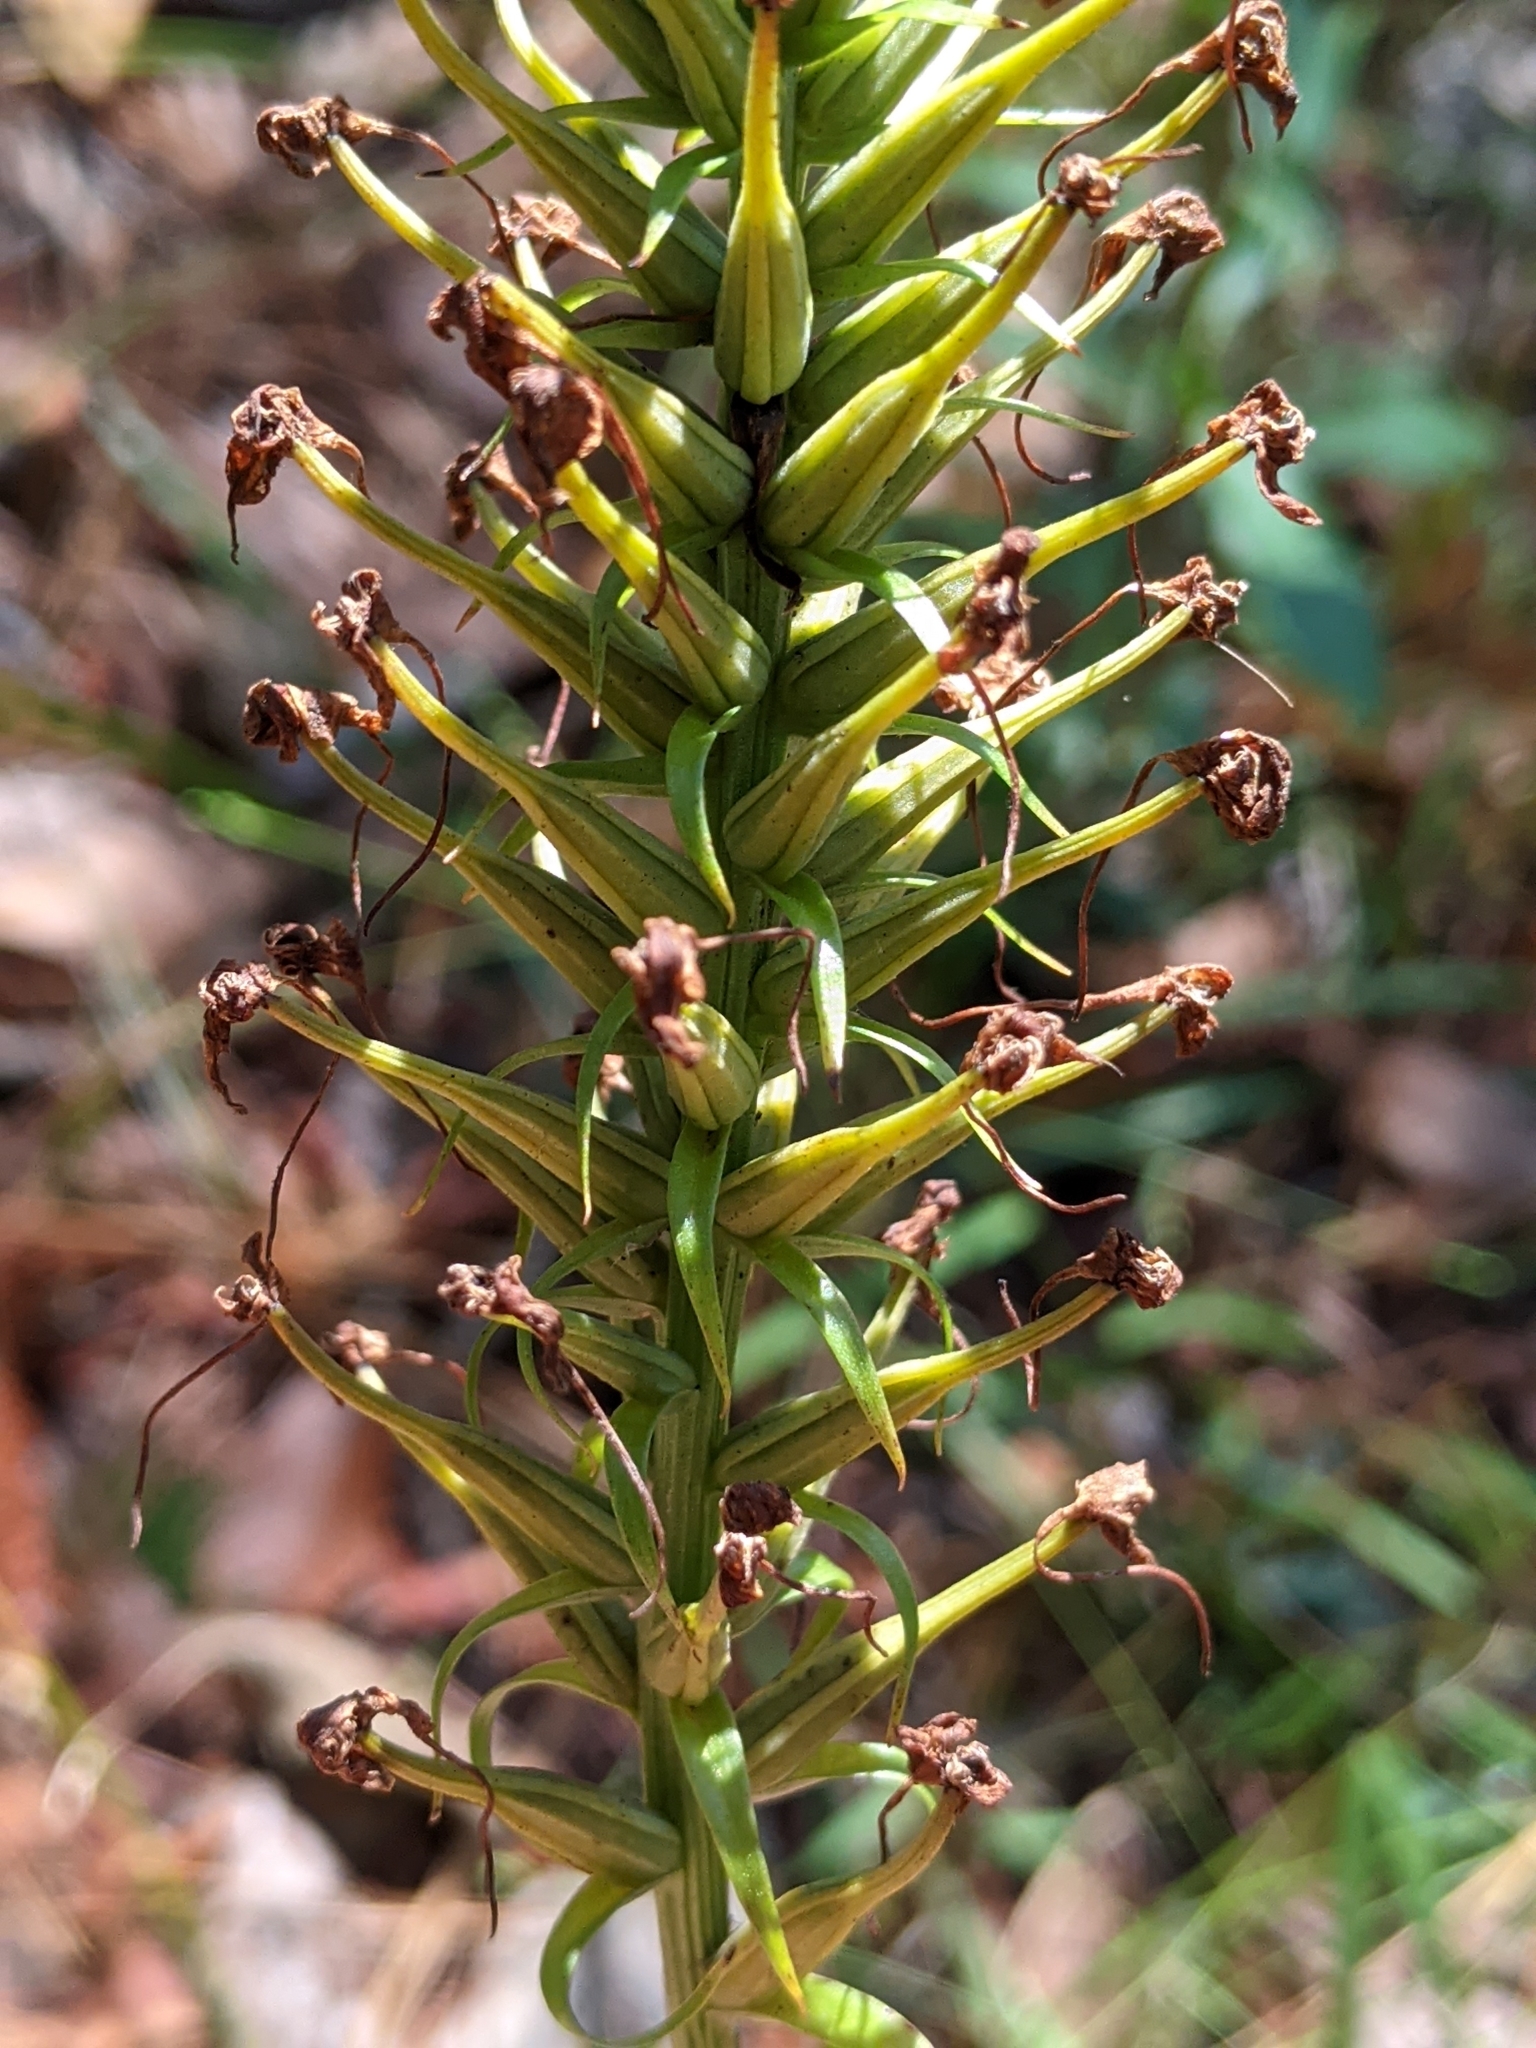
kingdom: Plantae
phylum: Tracheophyta
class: Liliopsida
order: Asparagales
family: Orchidaceae
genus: Platanthera
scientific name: Platanthera chapmanii
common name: Chapman’s fringed orchid
